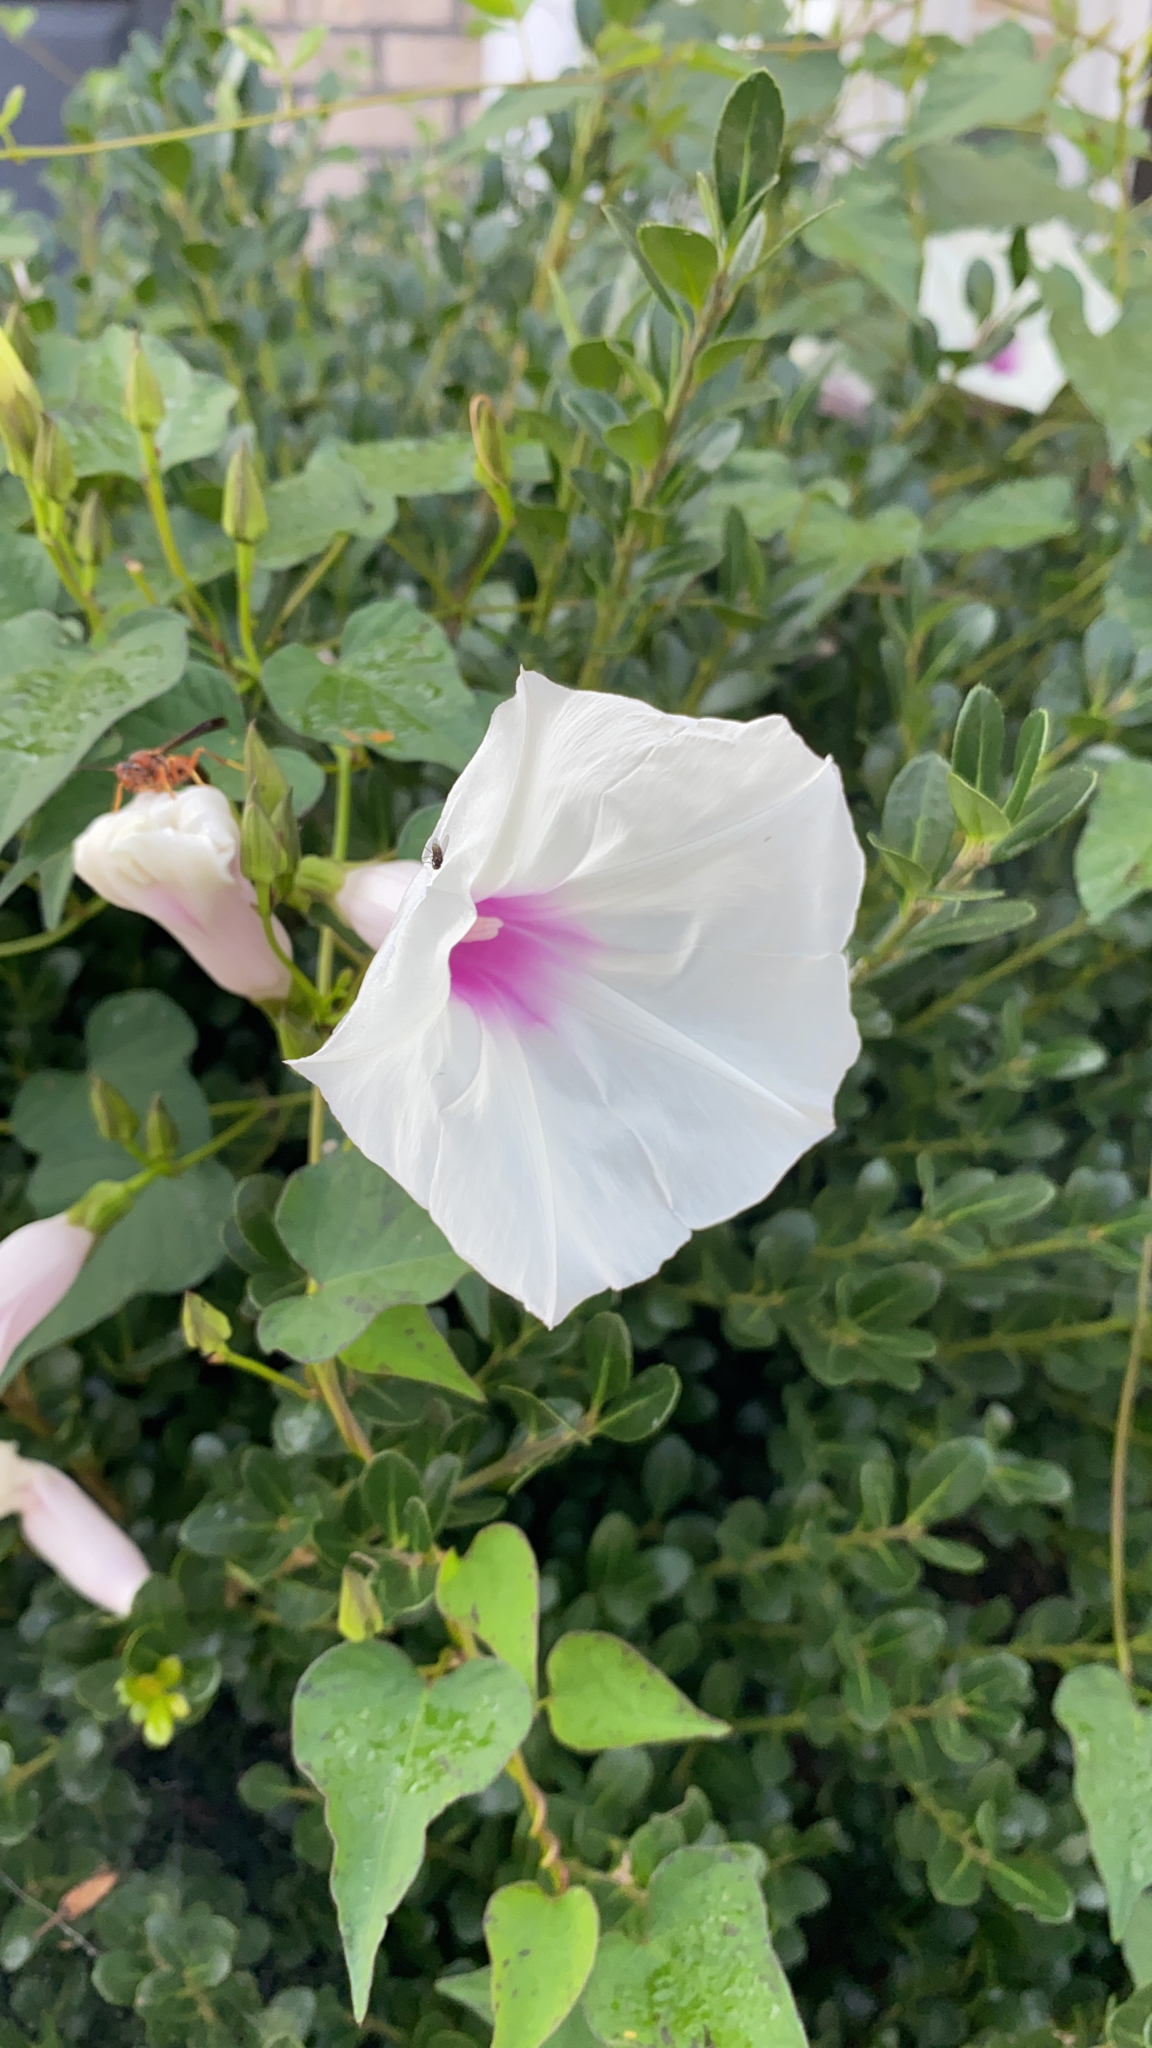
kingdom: Plantae
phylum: Tracheophyta
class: Magnoliopsida
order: Solanales
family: Convolvulaceae
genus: Ipomoea
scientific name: Ipomoea pandurata
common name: Man-of-the-earth
